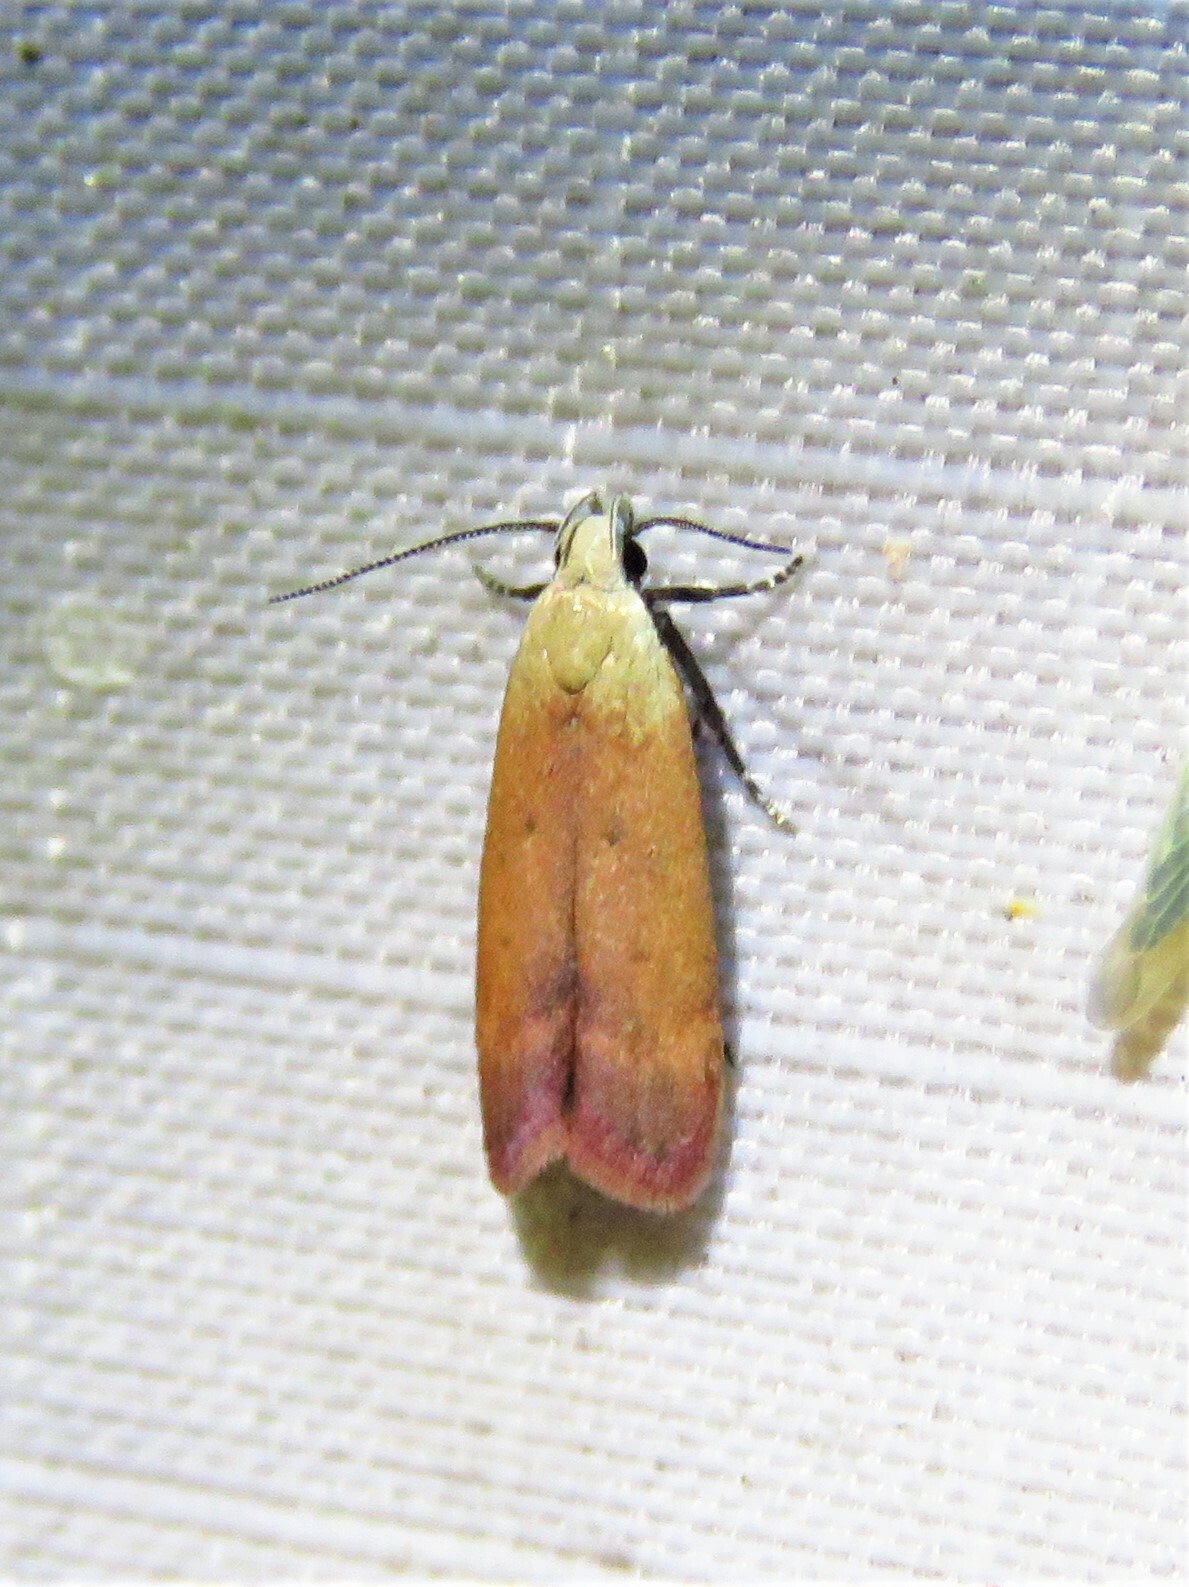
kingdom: Animalia
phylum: Arthropoda
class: Insecta
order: Lepidoptera
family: Gelechiidae
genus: Anacampsis
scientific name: Anacampsis fullonella
